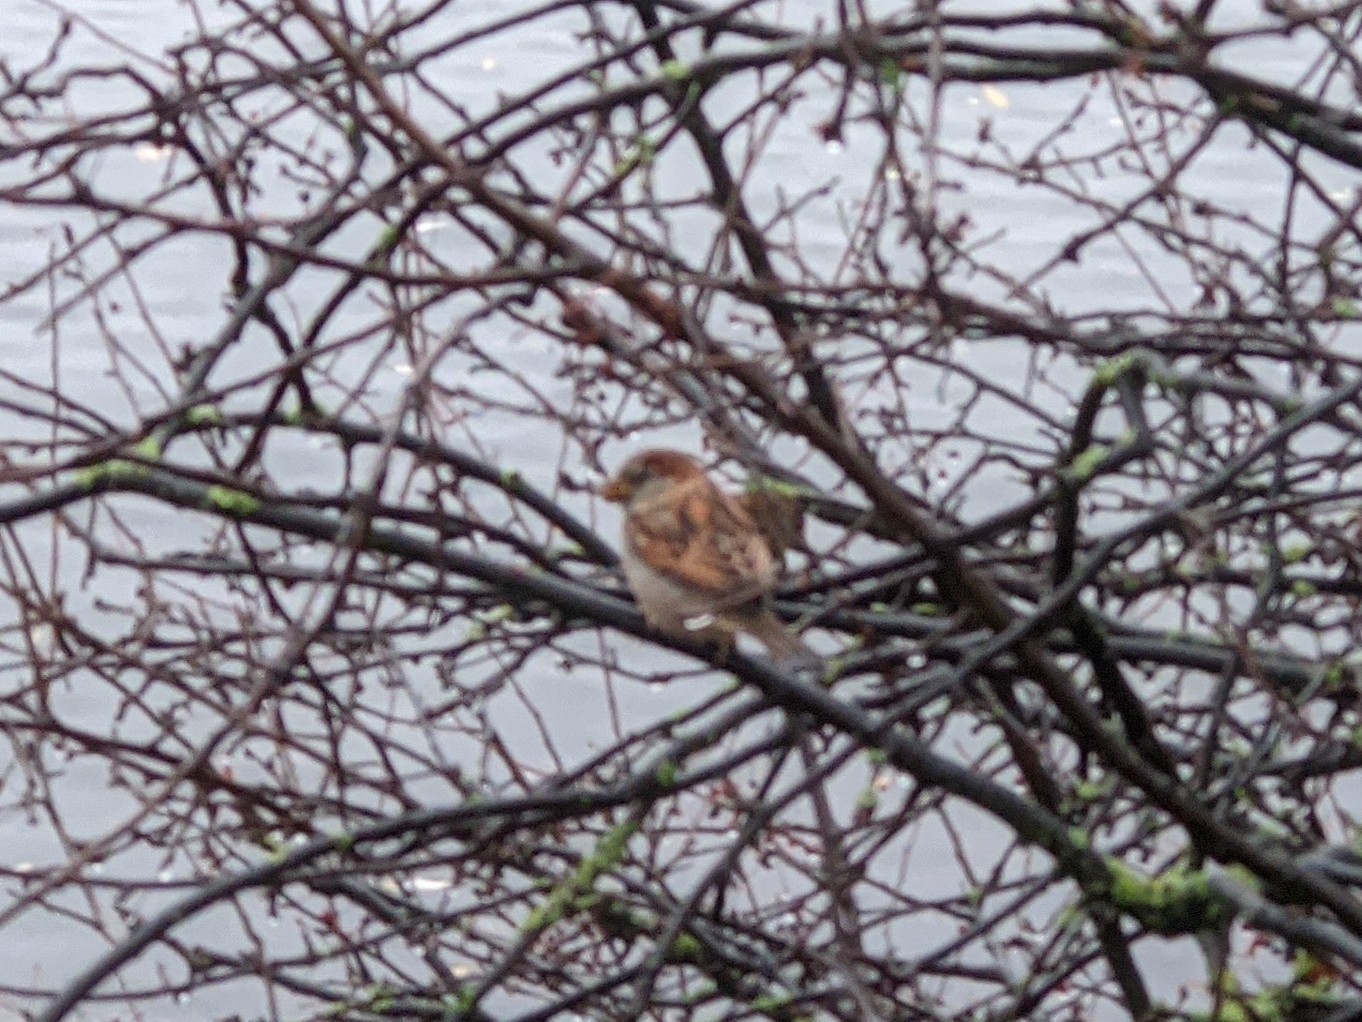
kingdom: Animalia
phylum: Chordata
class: Aves
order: Passeriformes
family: Passeridae
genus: Passer
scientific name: Passer domesticus
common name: House sparrow
